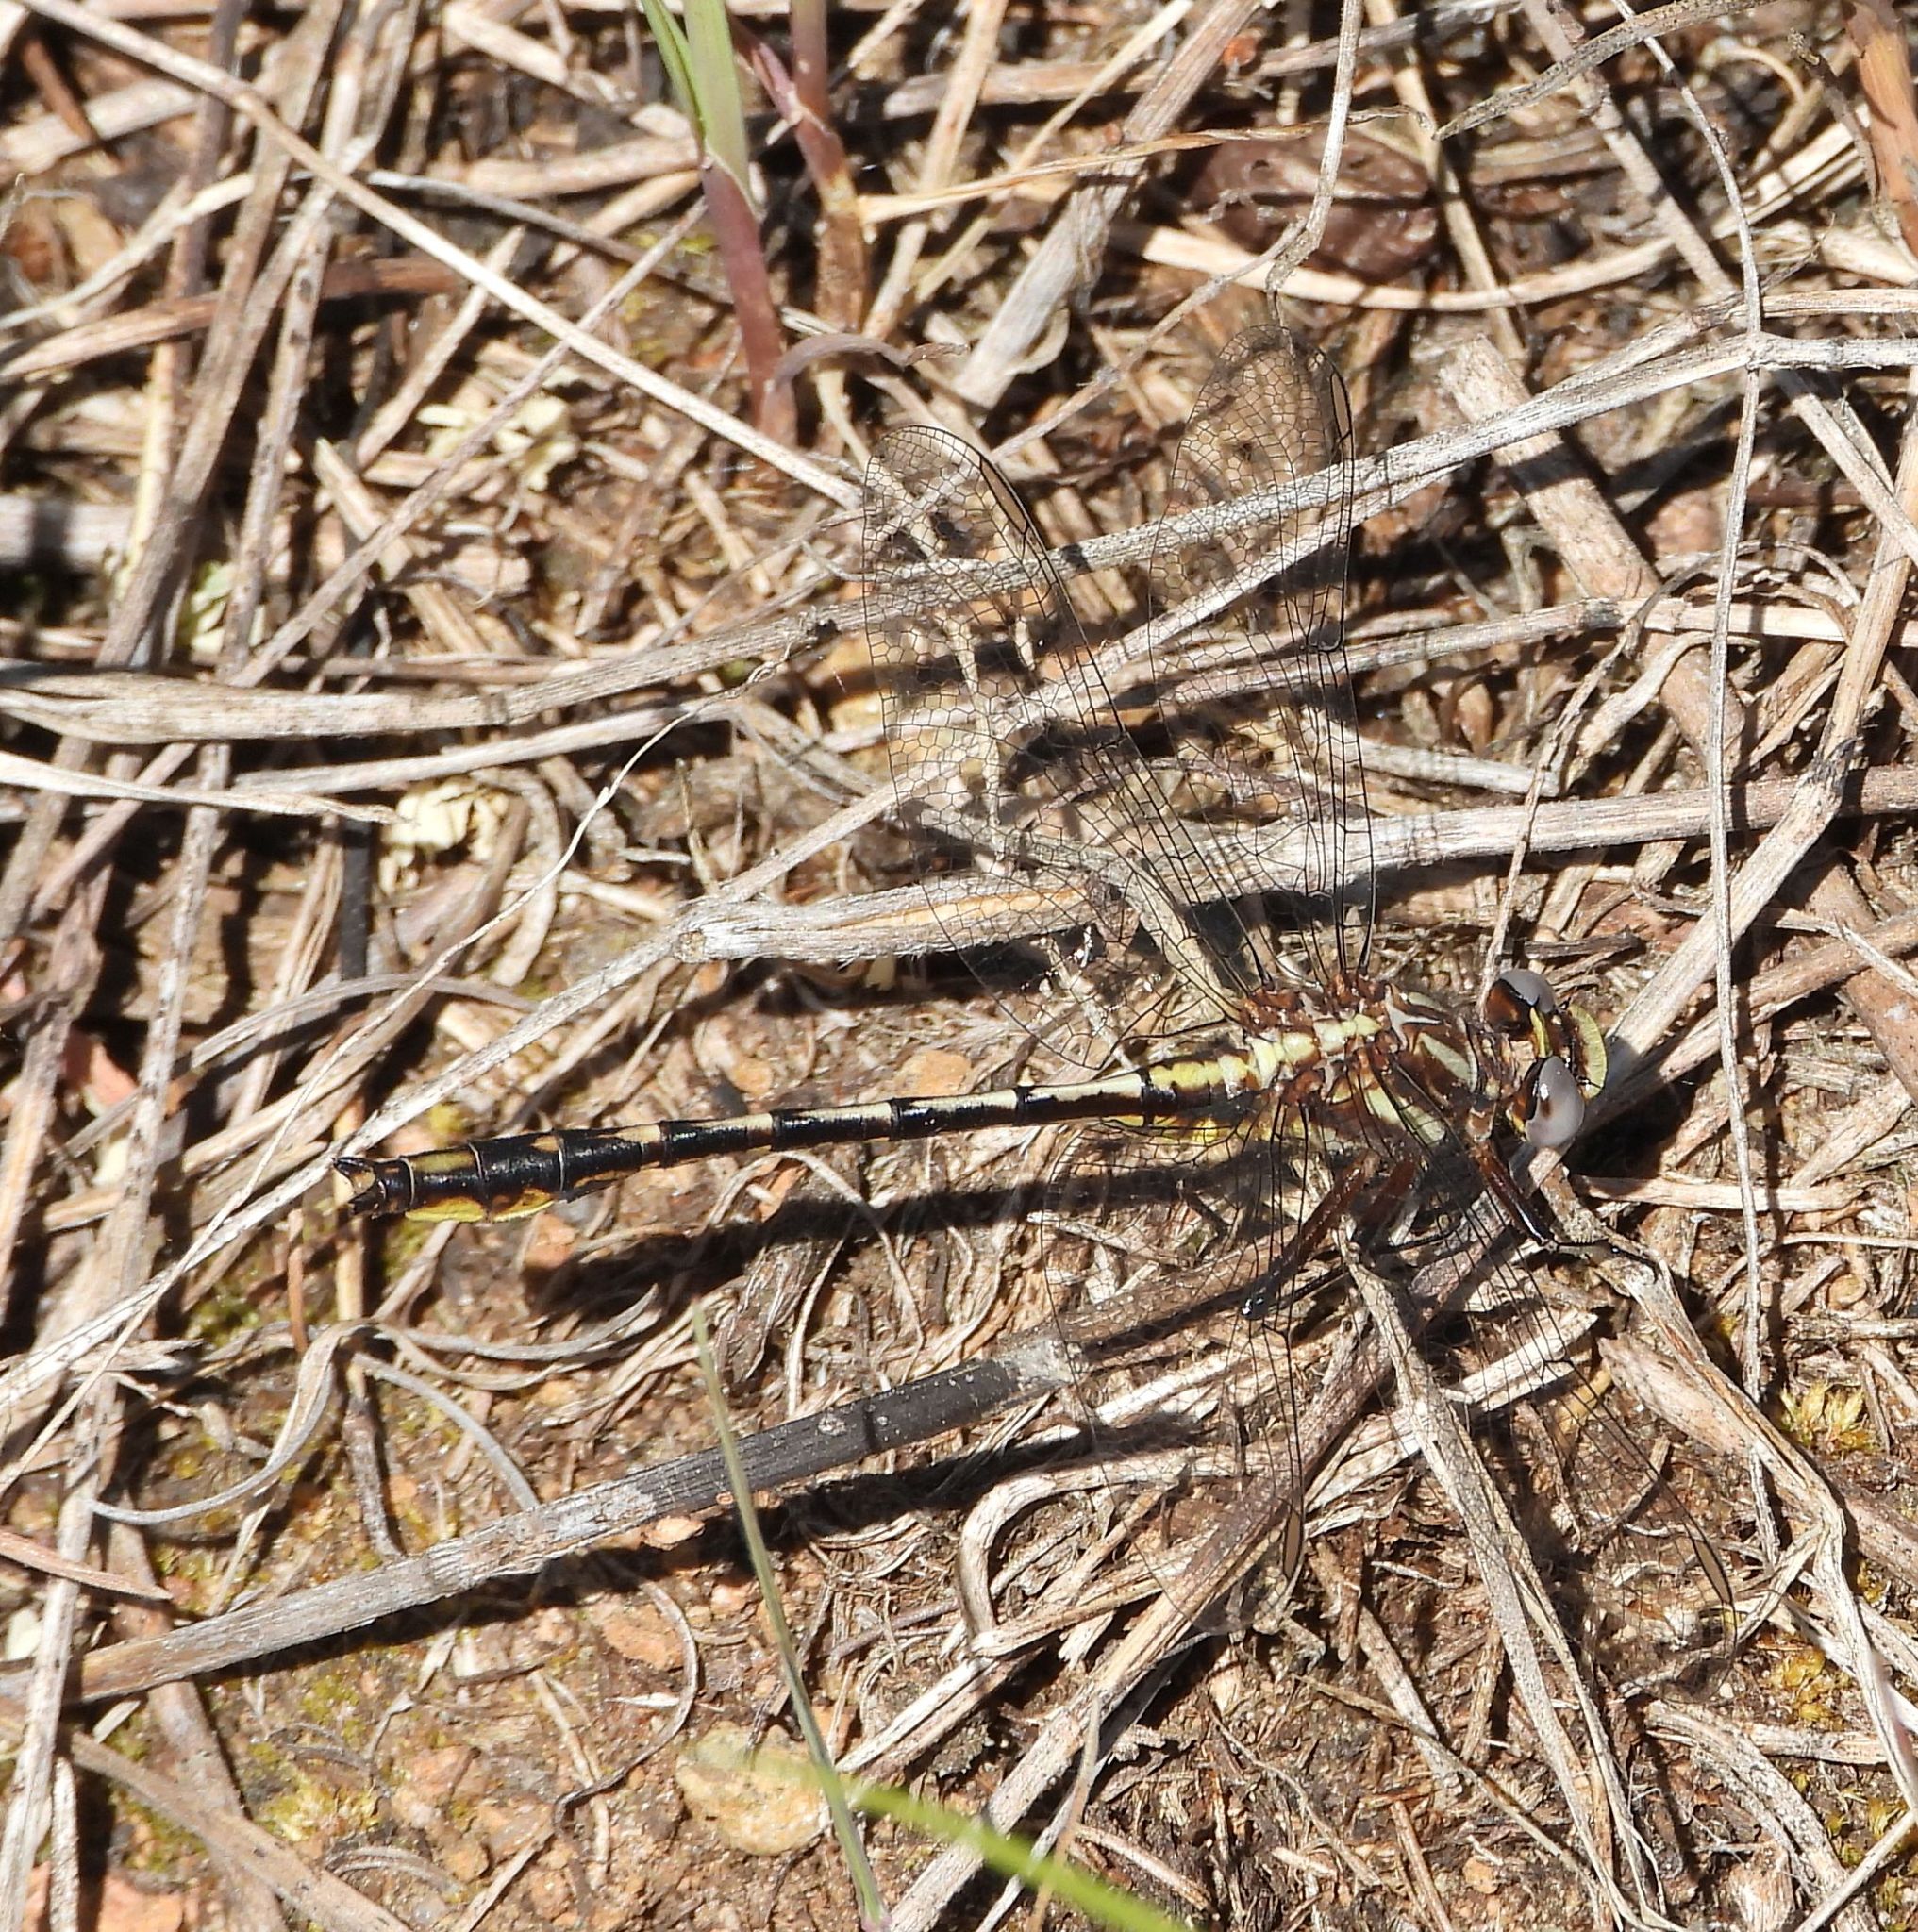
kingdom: Animalia
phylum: Arthropoda
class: Insecta
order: Odonata
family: Gomphidae
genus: Phanogomphus
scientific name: Phanogomphus exilis
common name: Lancet clubtail
